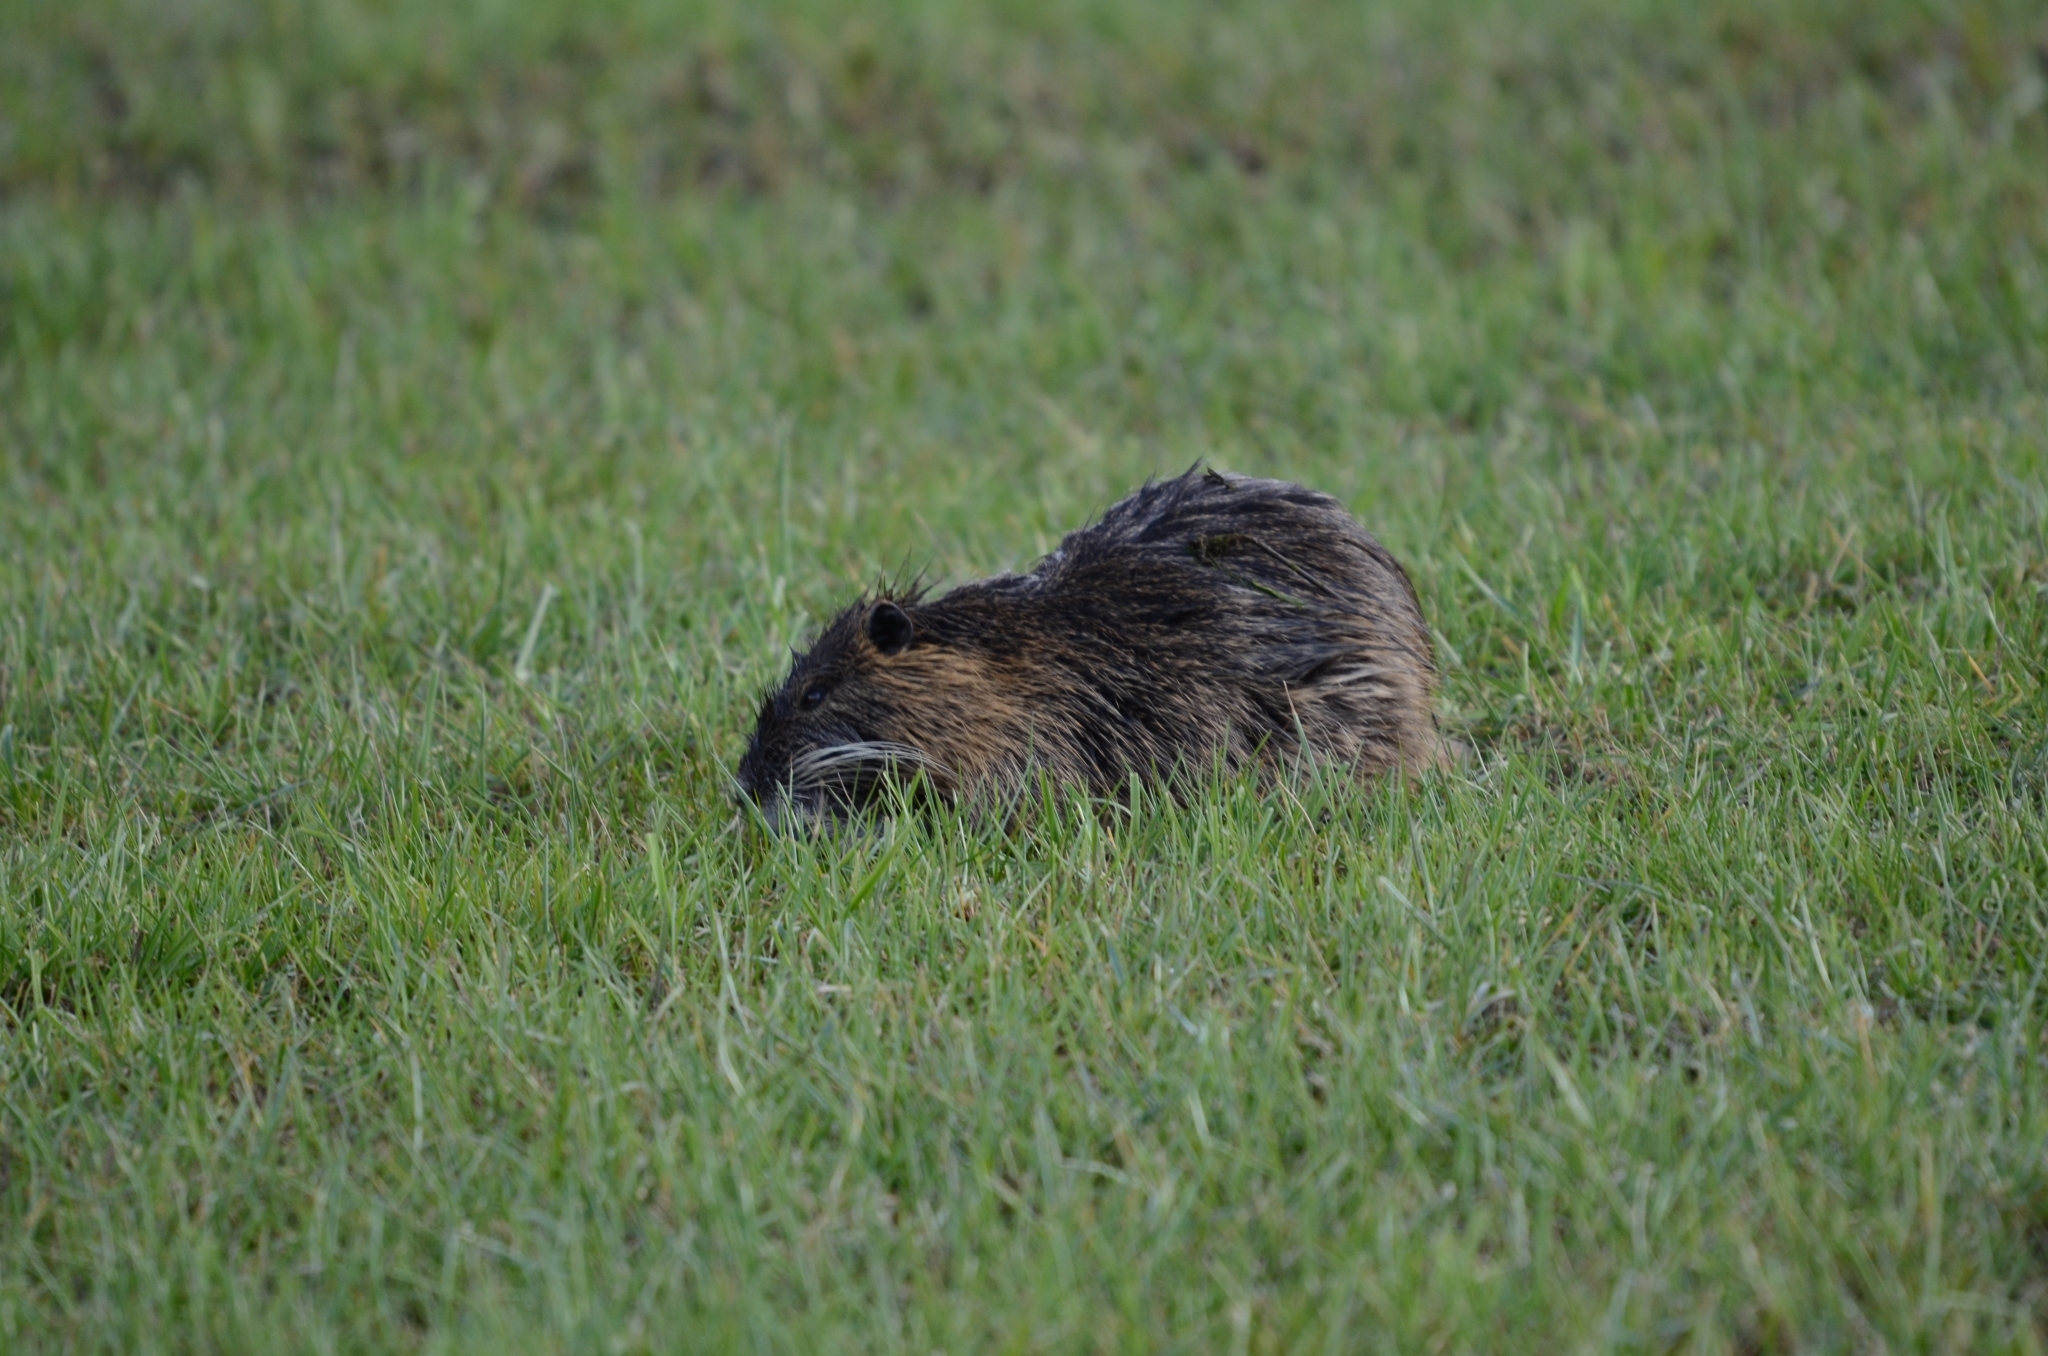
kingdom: Animalia
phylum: Chordata
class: Mammalia
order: Rodentia
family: Myocastoridae
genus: Myocastor
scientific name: Myocastor coypus
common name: Coypu
